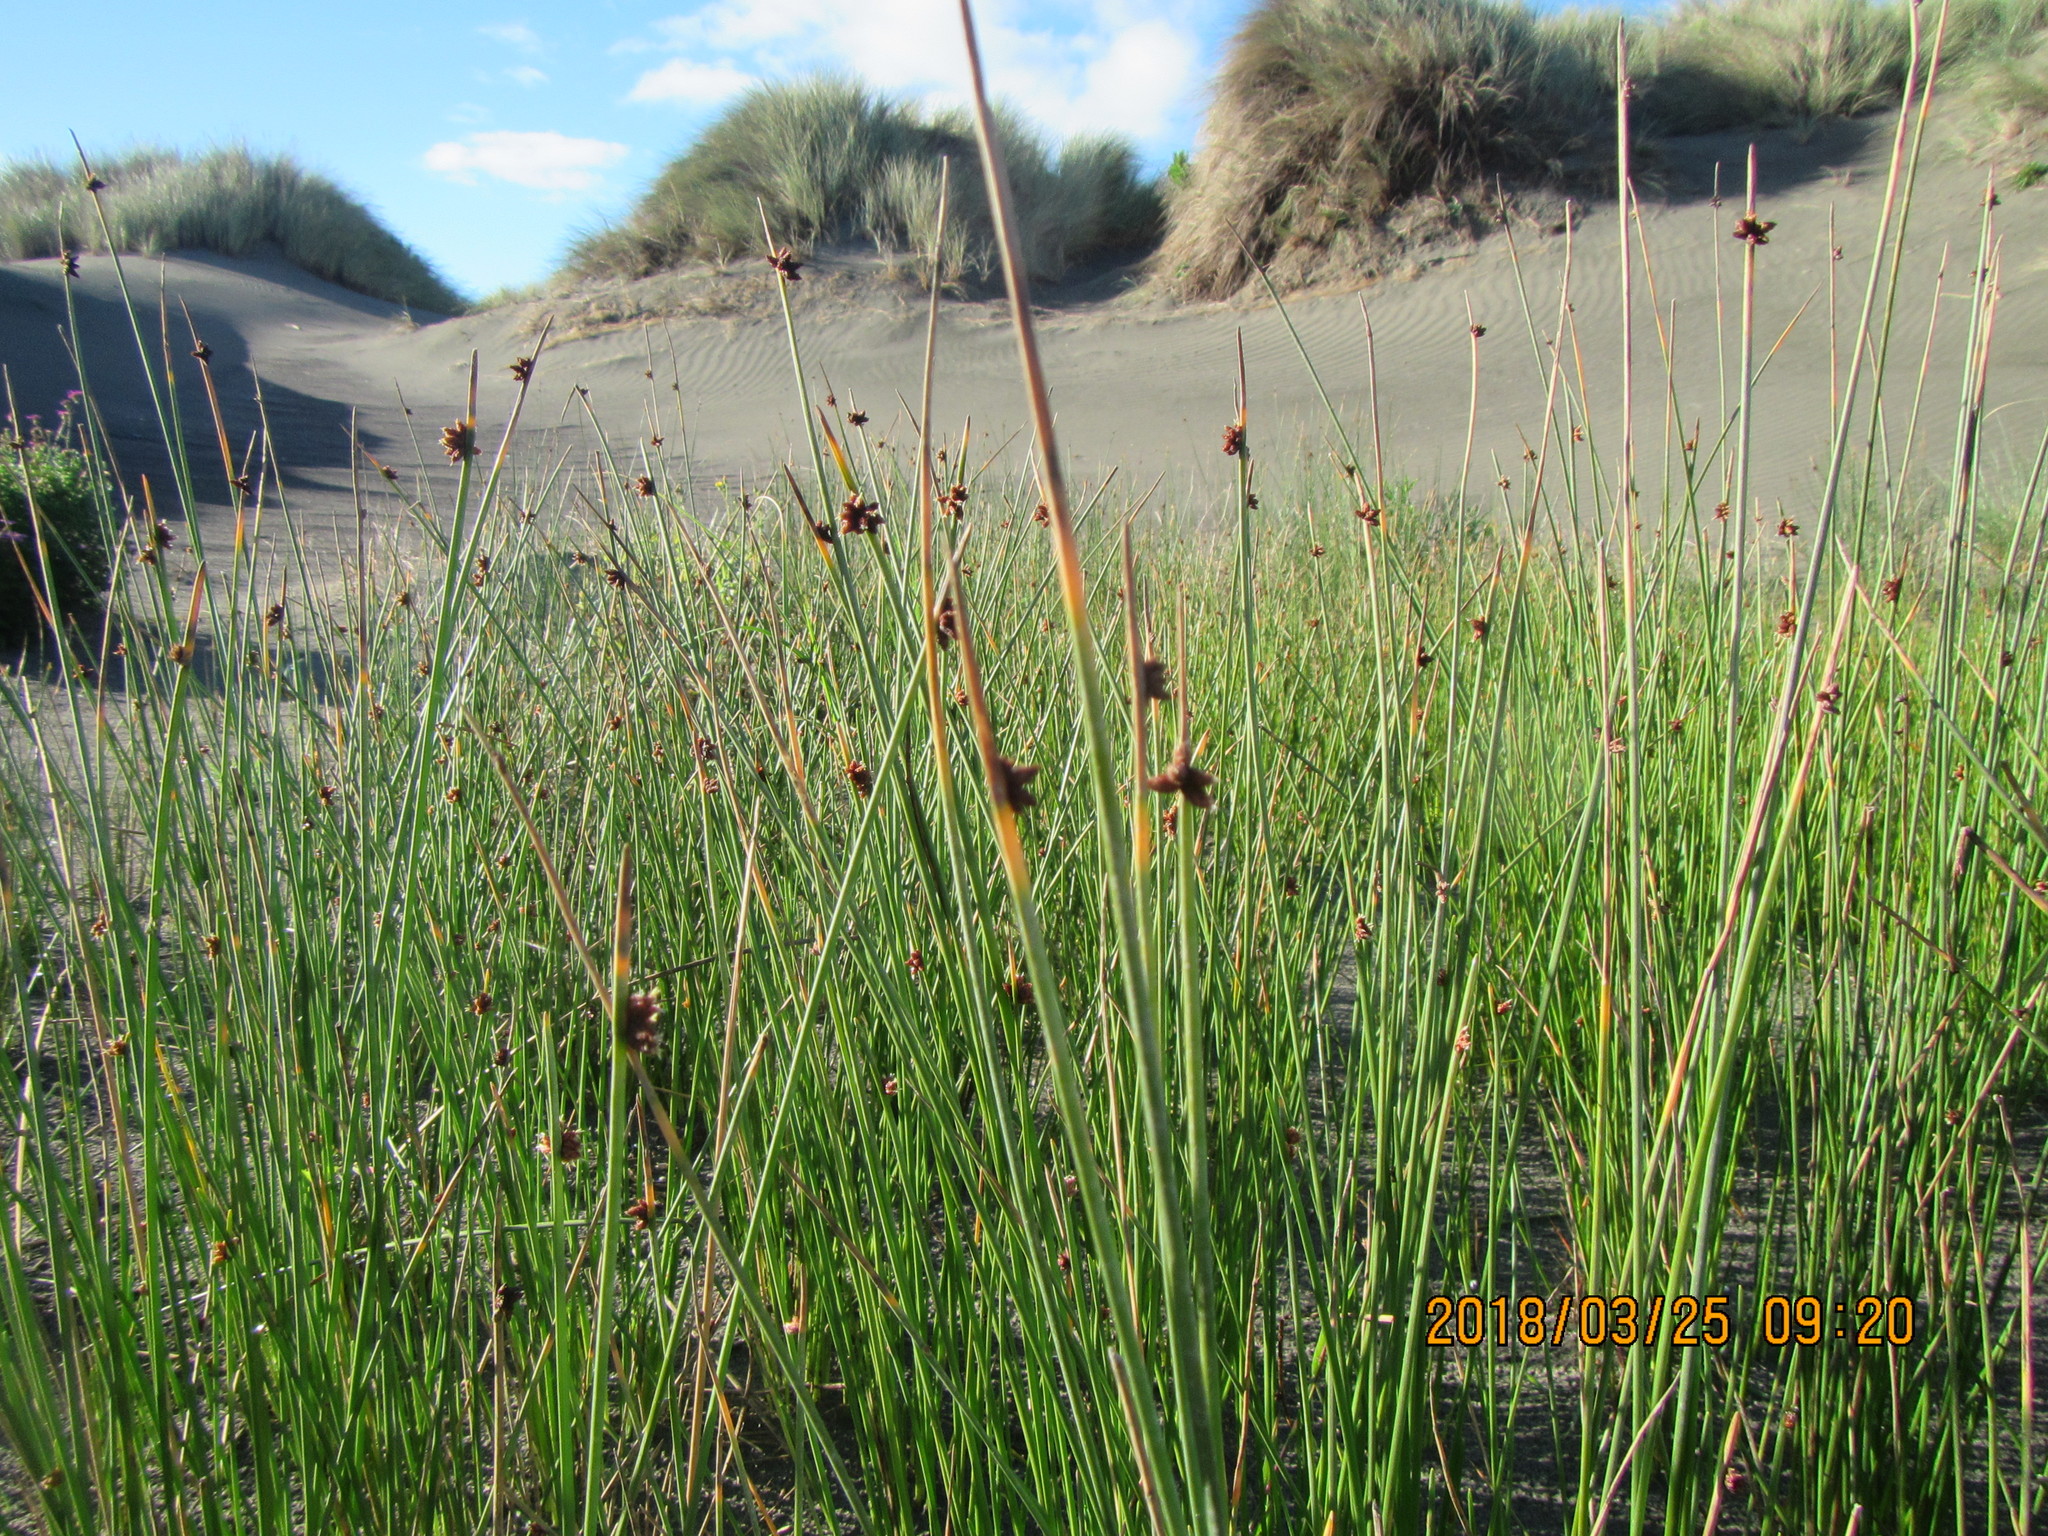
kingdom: Plantae
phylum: Tracheophyta
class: Liliopsida
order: Poales
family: Cyperaceae
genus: Ficinia
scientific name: Ficinia nodosa
